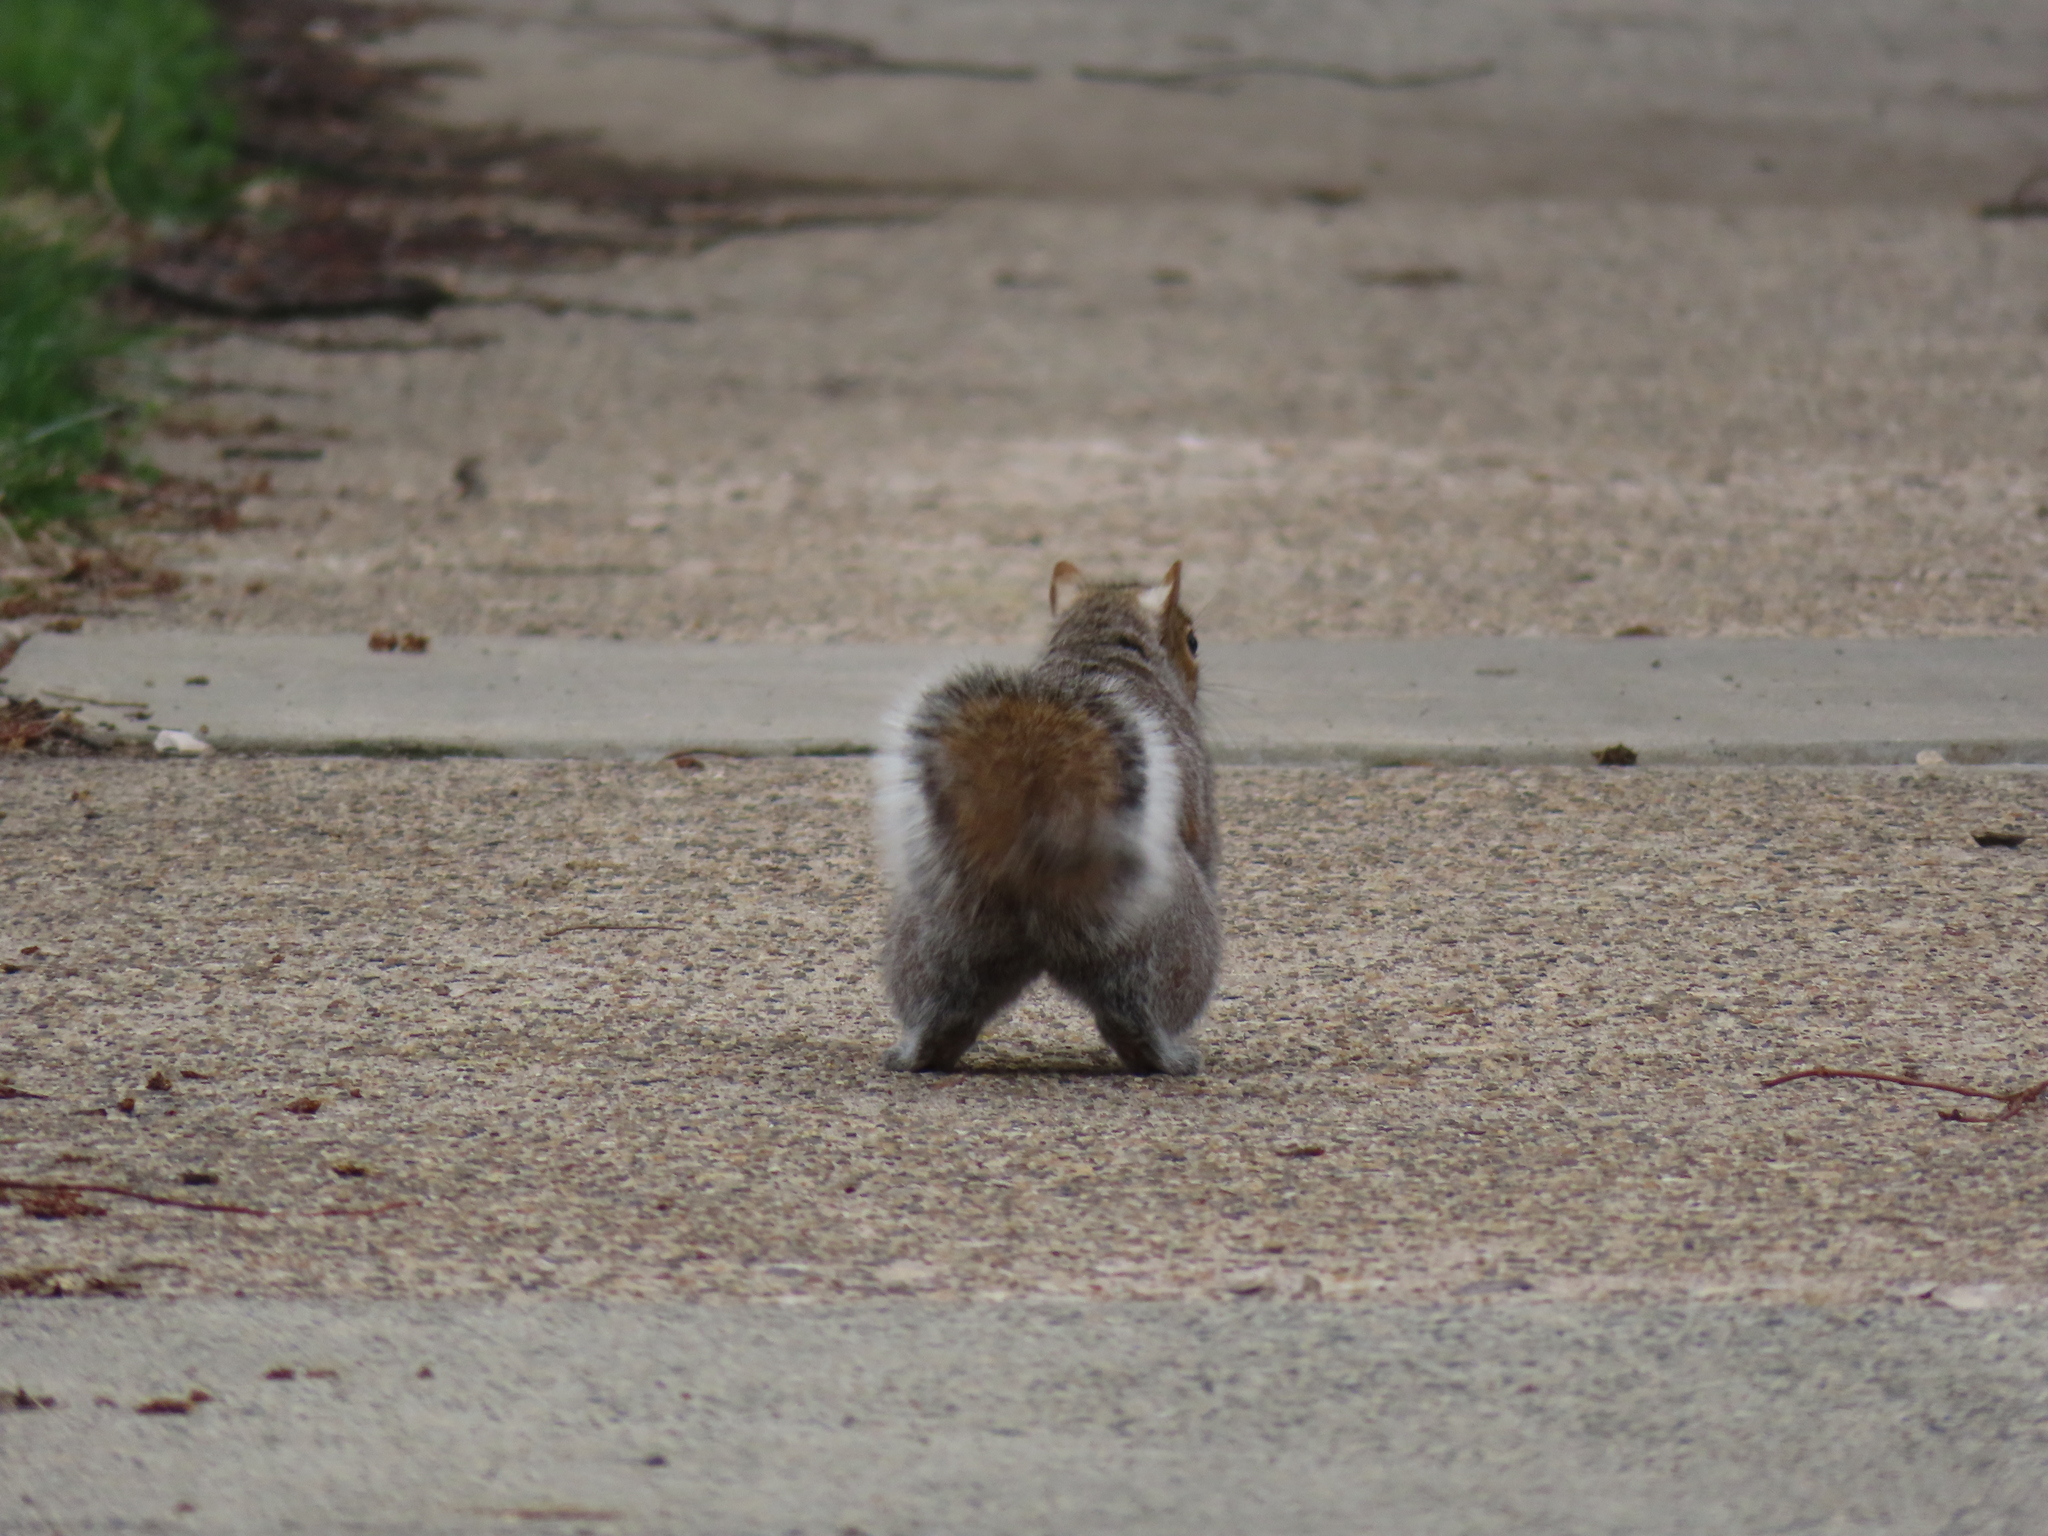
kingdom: Animalia
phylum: Chordata
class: Mammalia
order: Rodentia
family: Sciuridae
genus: Sciurus
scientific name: Sciurus carolinensis
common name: Eastern gray squirrel
